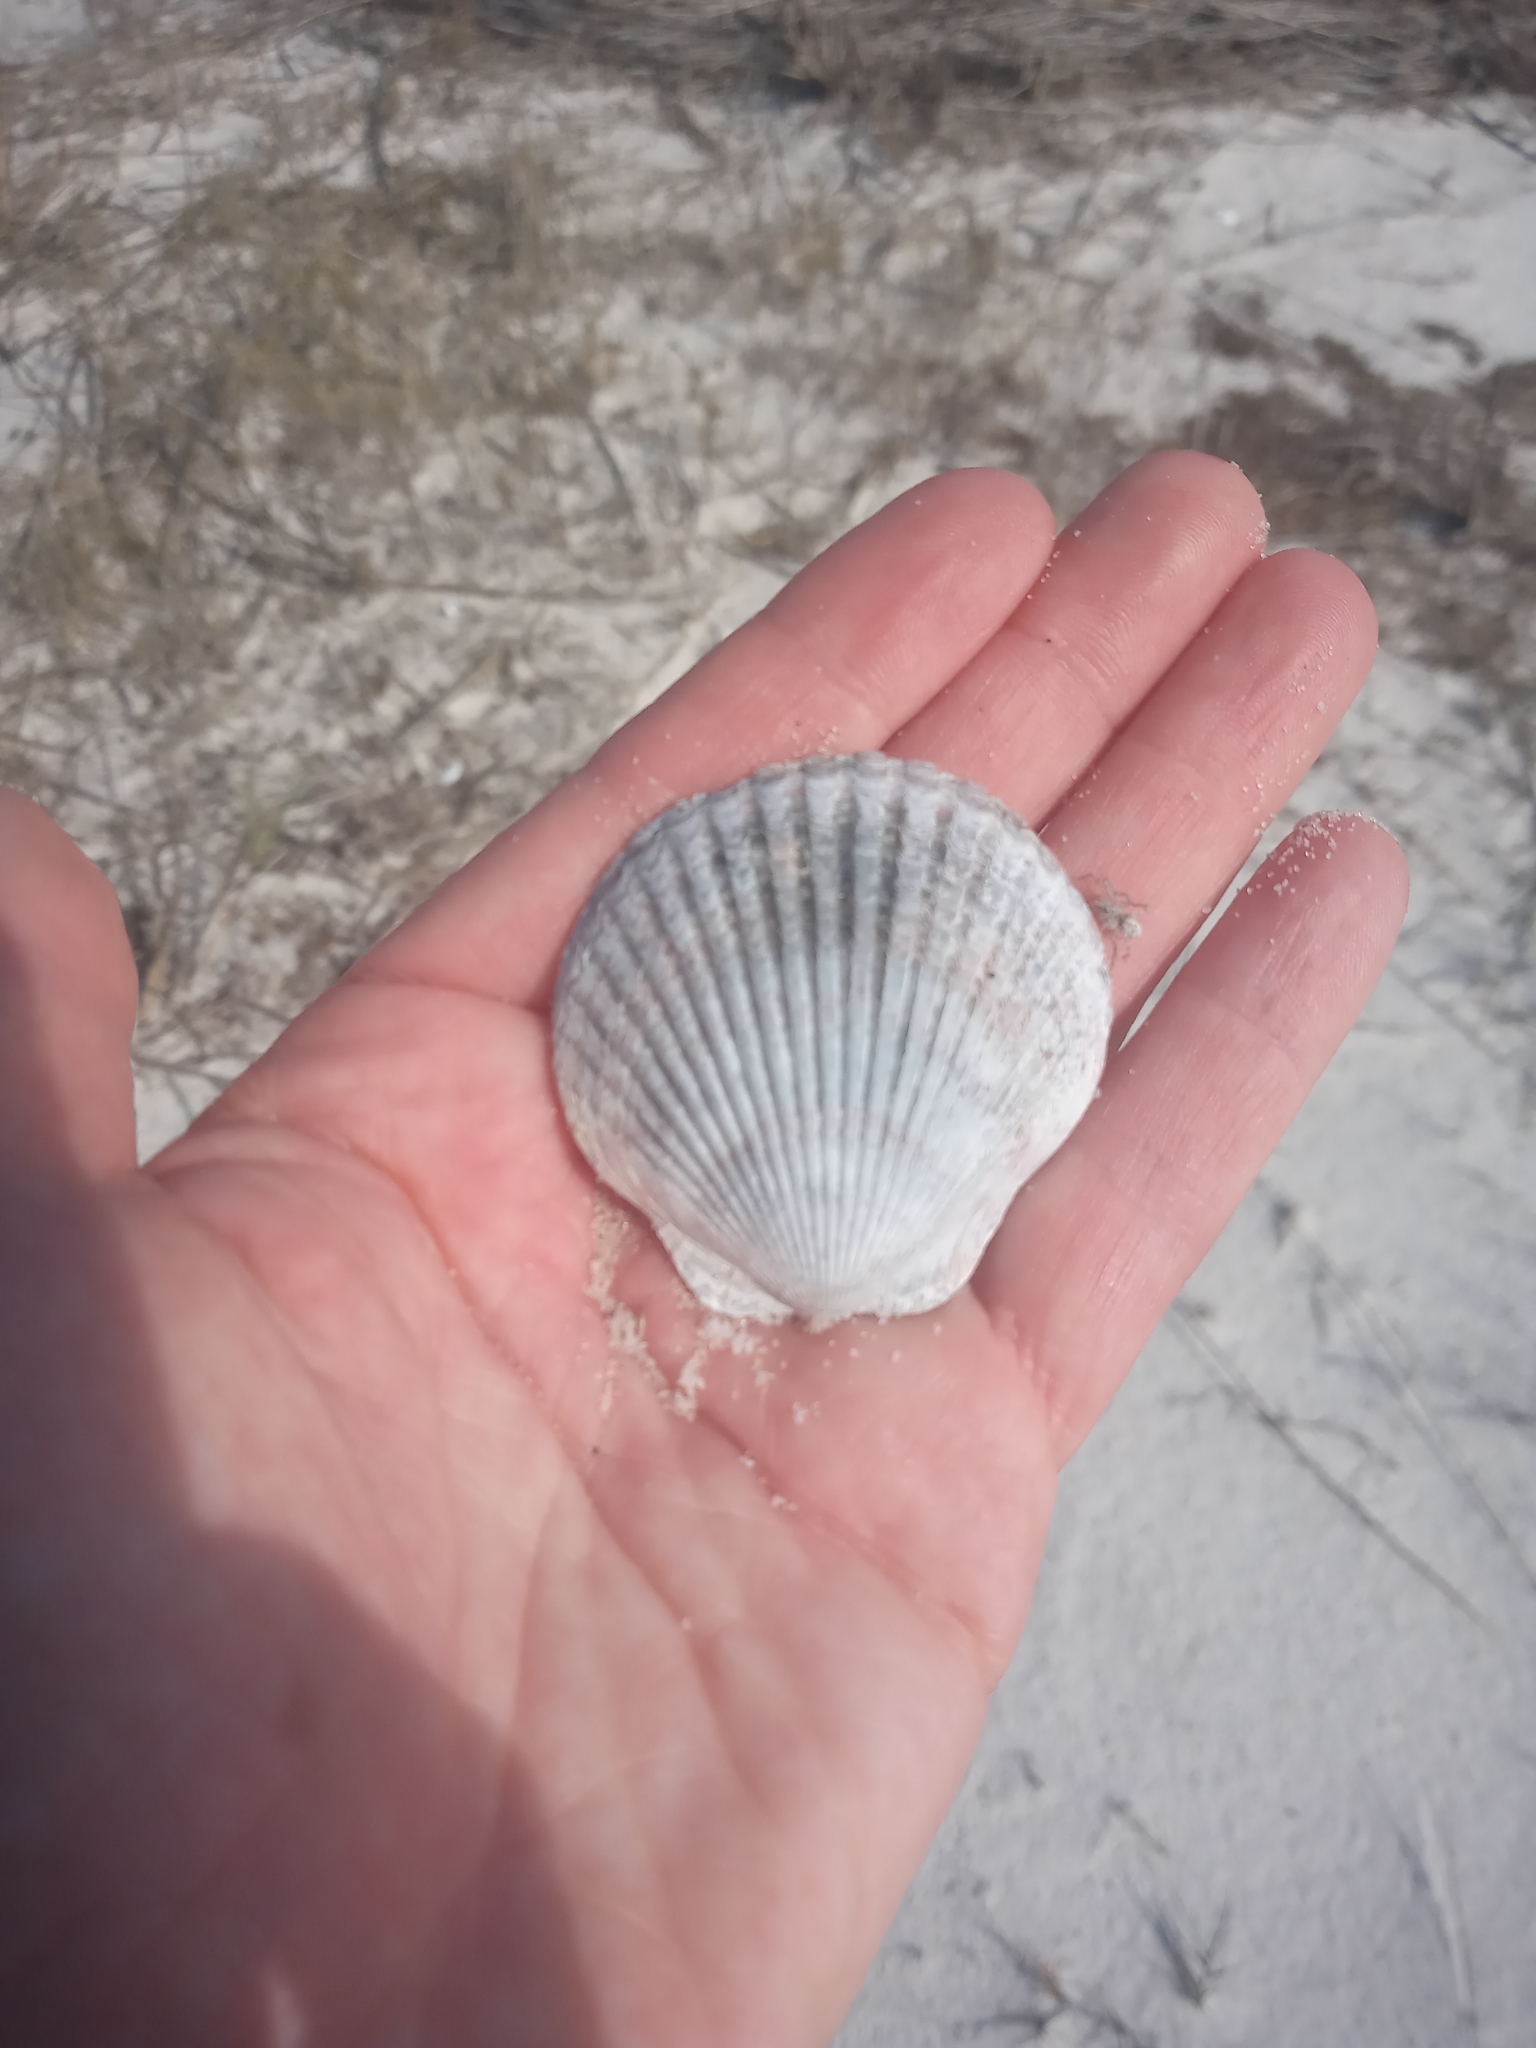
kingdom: Animalia
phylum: Mollusca
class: Bivalvia
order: Pectinida
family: Pectinidae
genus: Argopecten
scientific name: Argopecten irradians
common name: Atlantic bay scallop
